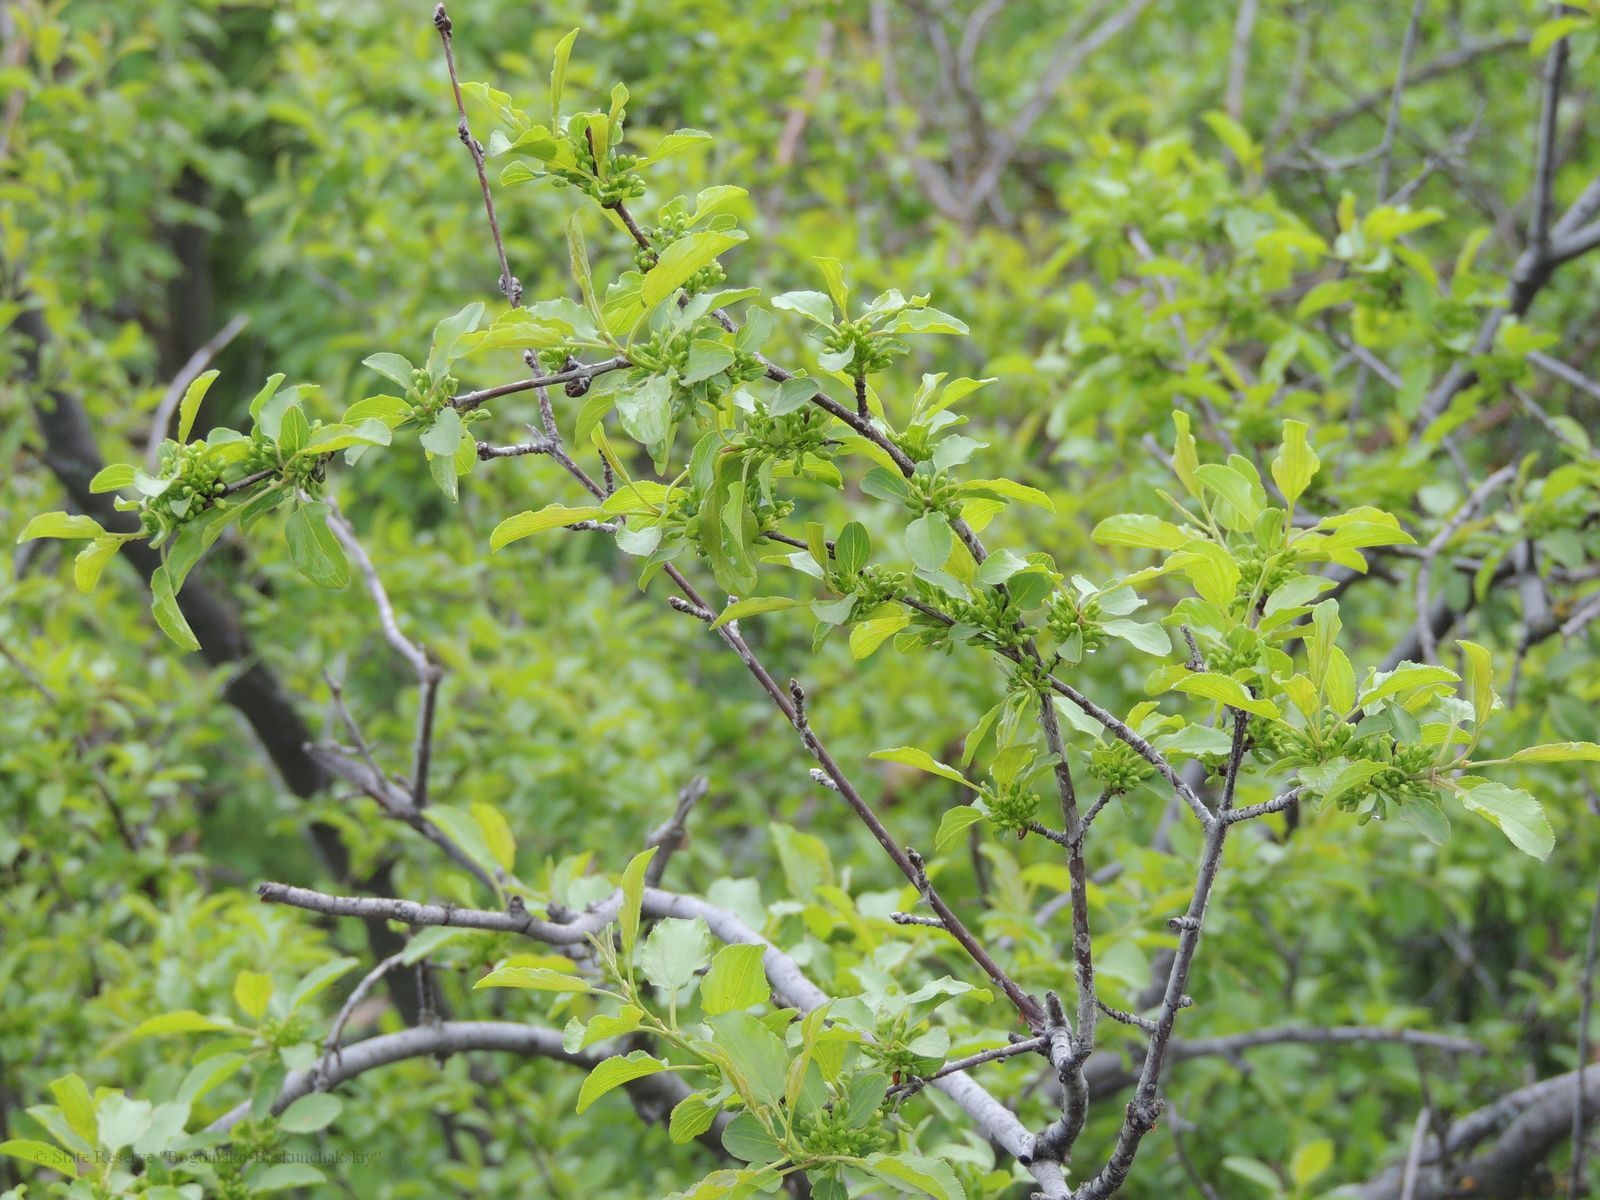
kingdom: Plantae
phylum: Tracheophyta
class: Magnoliopsida
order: Rosales
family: Rhamnaceae
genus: Rhamnus
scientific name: Rhamnus cathartica
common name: Common buckthorn
